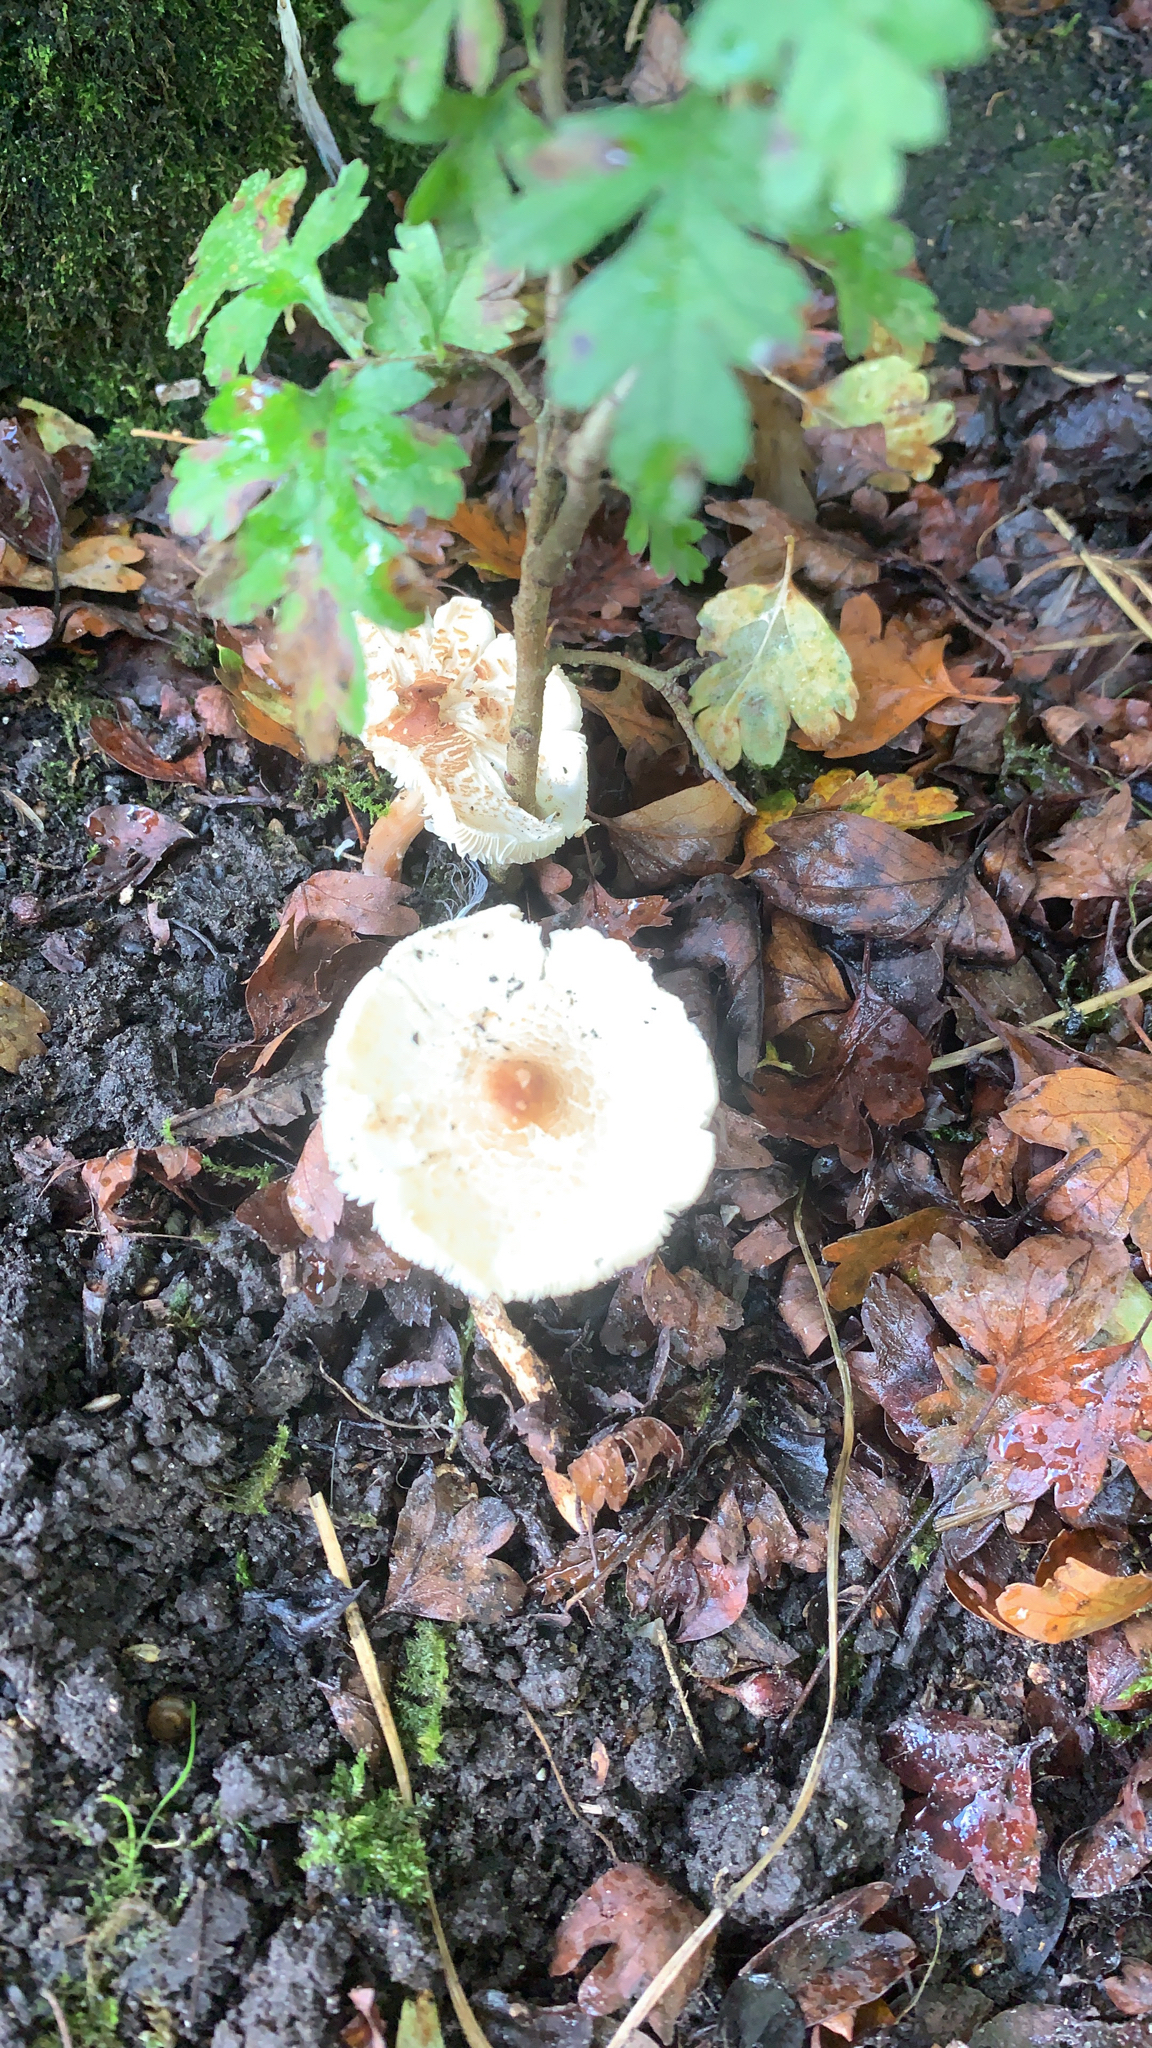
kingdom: Fungi
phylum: Basidiomycota
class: Agaricomycetes
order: Agaricales
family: Agaricaceae
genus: Lepiota
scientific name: Lepiota cristata
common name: Stinking dapperling
